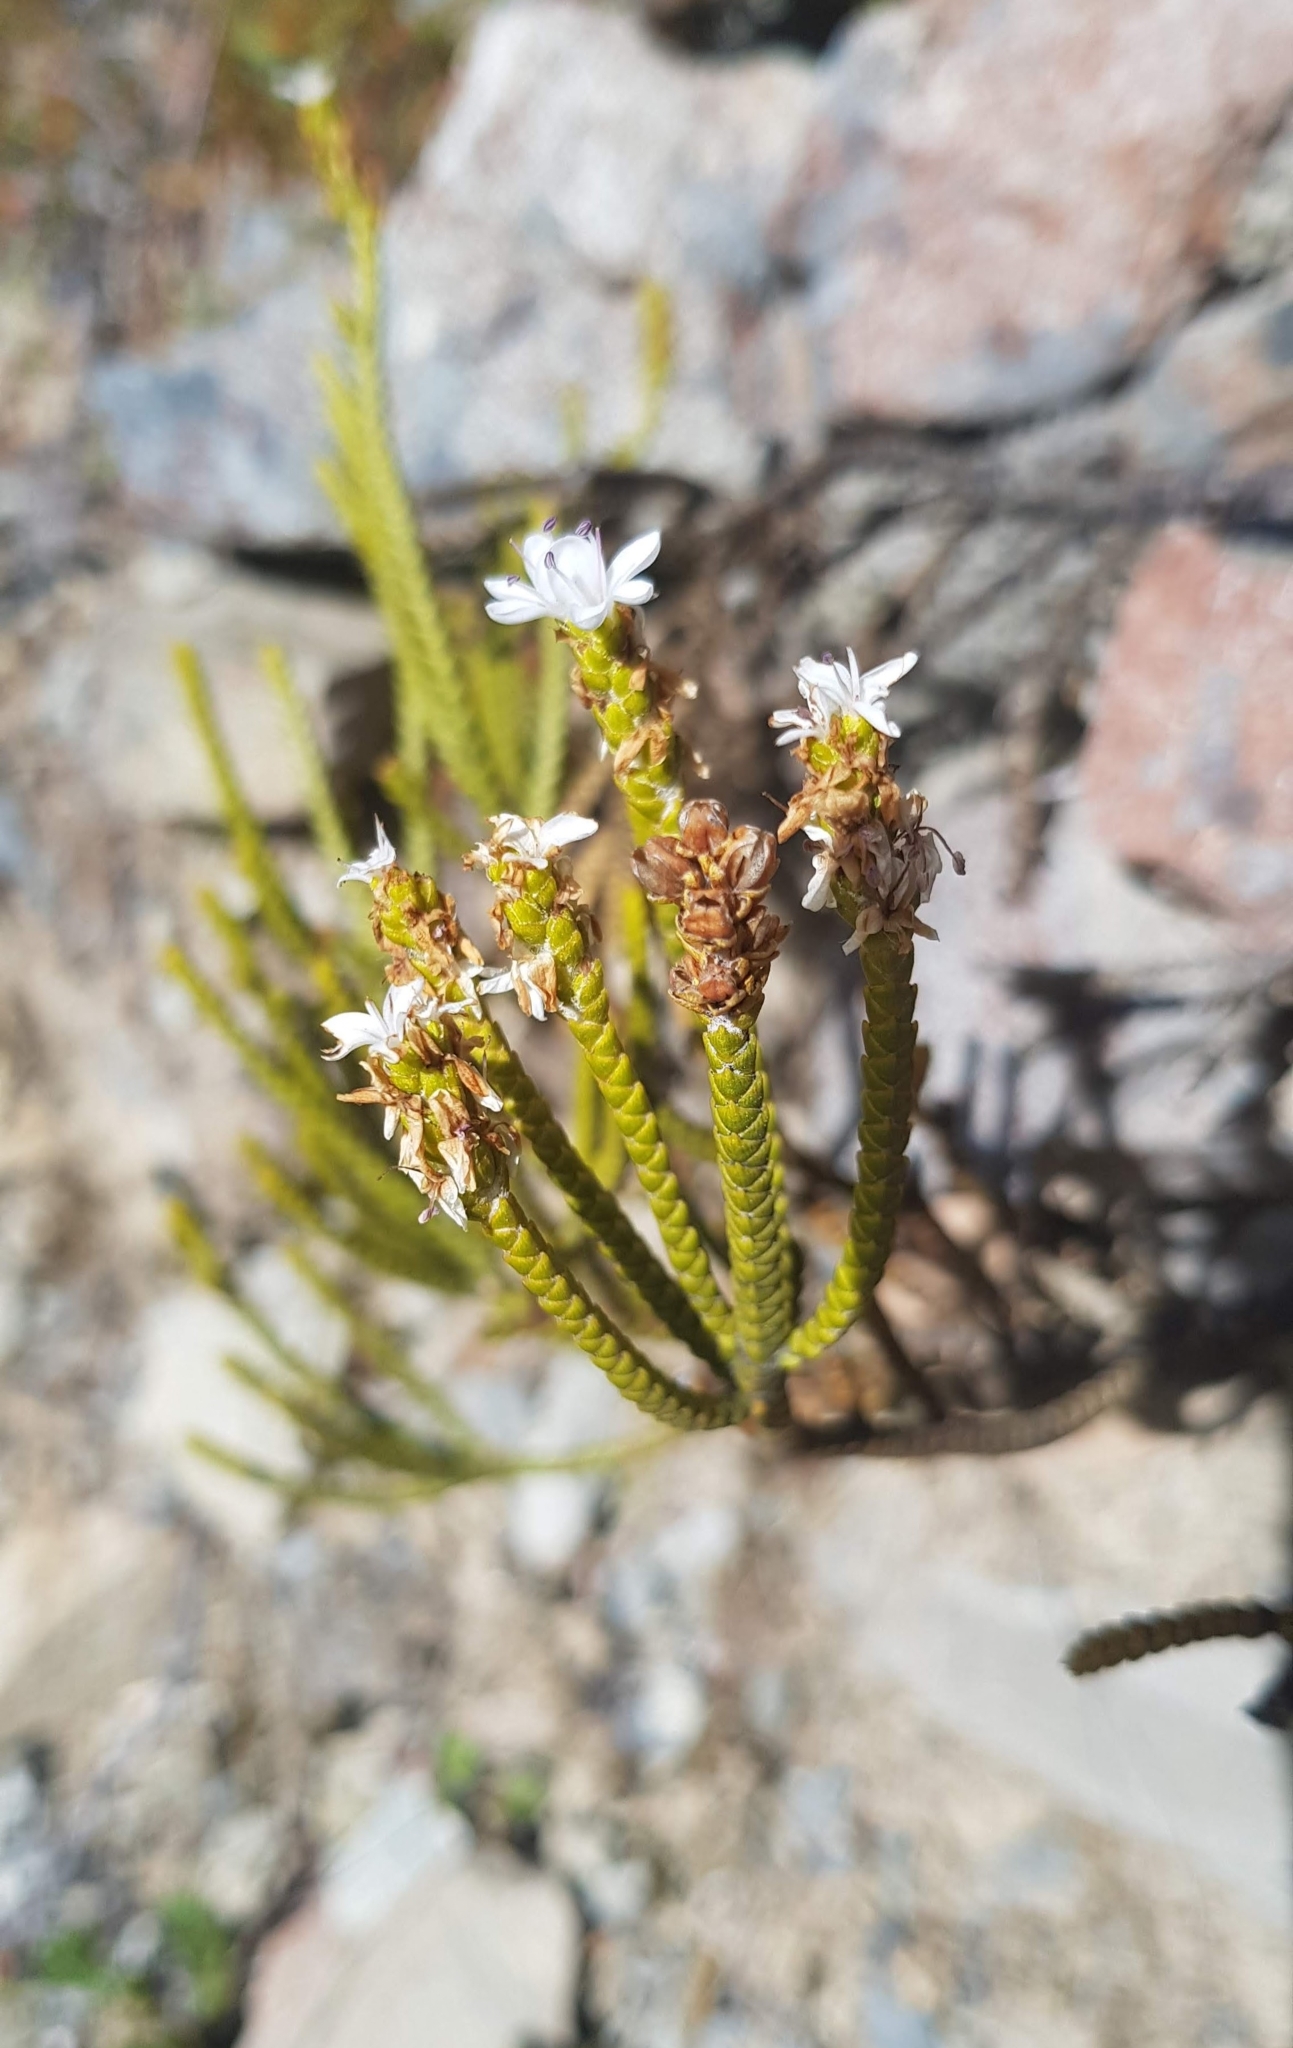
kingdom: Plantae
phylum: Tracheophyta
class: Magnoliopsida
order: Lamiales
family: Plantaginaceae
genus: Veronica
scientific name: Veronica lycopodioides
